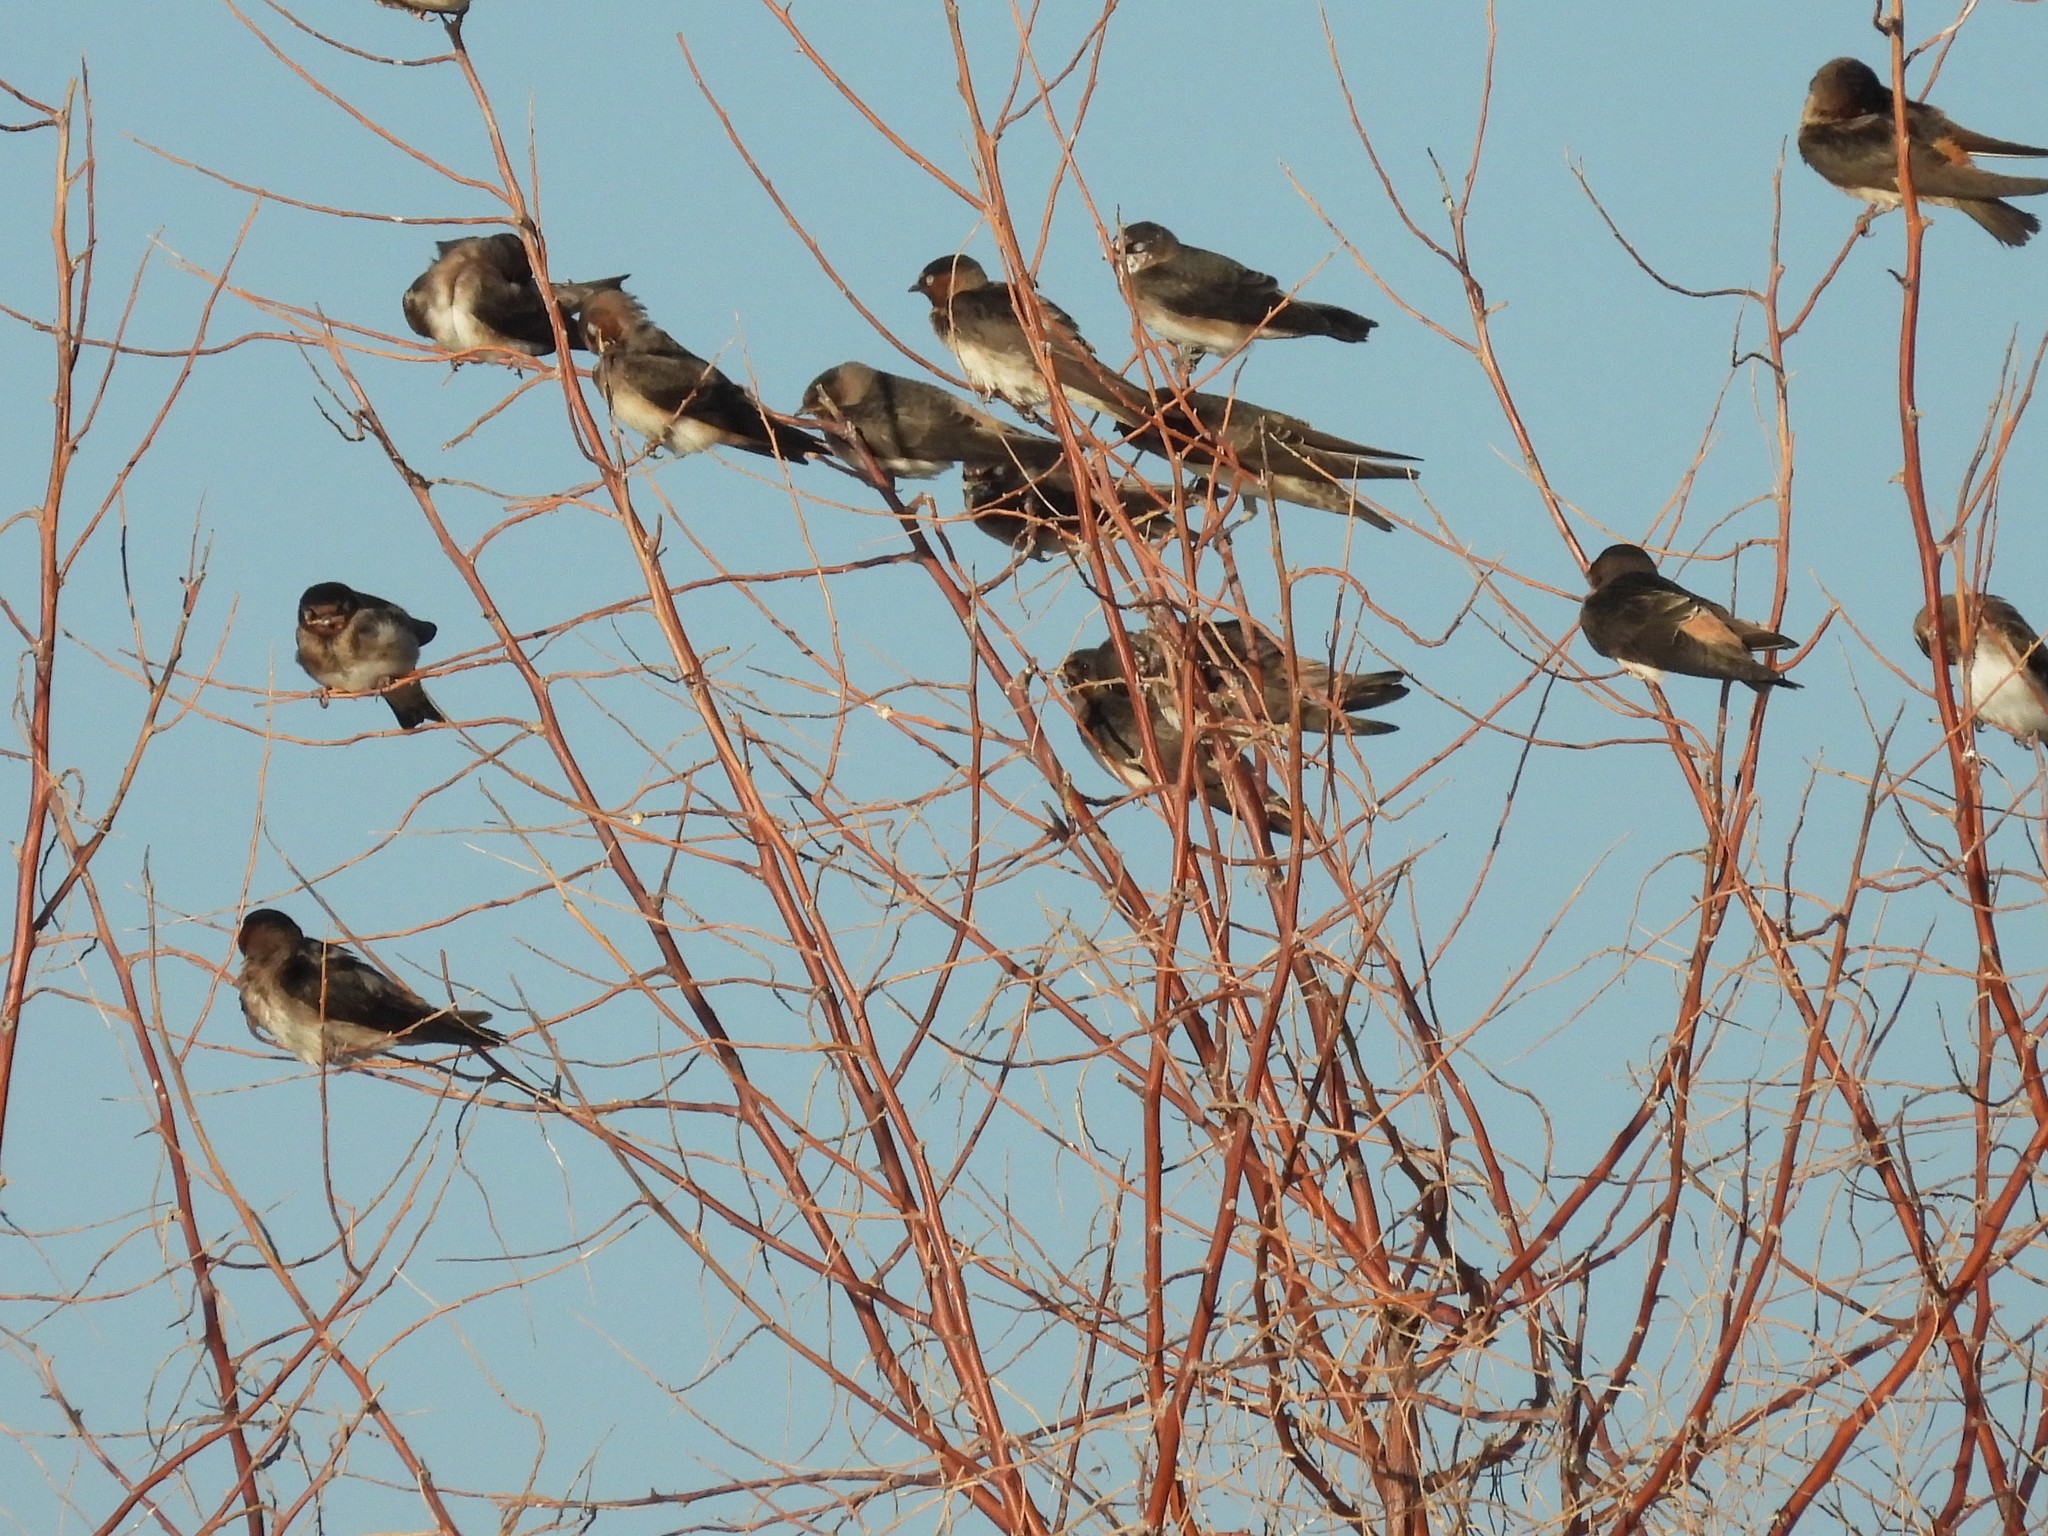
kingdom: Animalia
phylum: Chordata
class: Aves
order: Passeriformes
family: Hirundinidae
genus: Petrochelidon
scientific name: Petrochelidon pyrrhonota
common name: American cliff swallow
